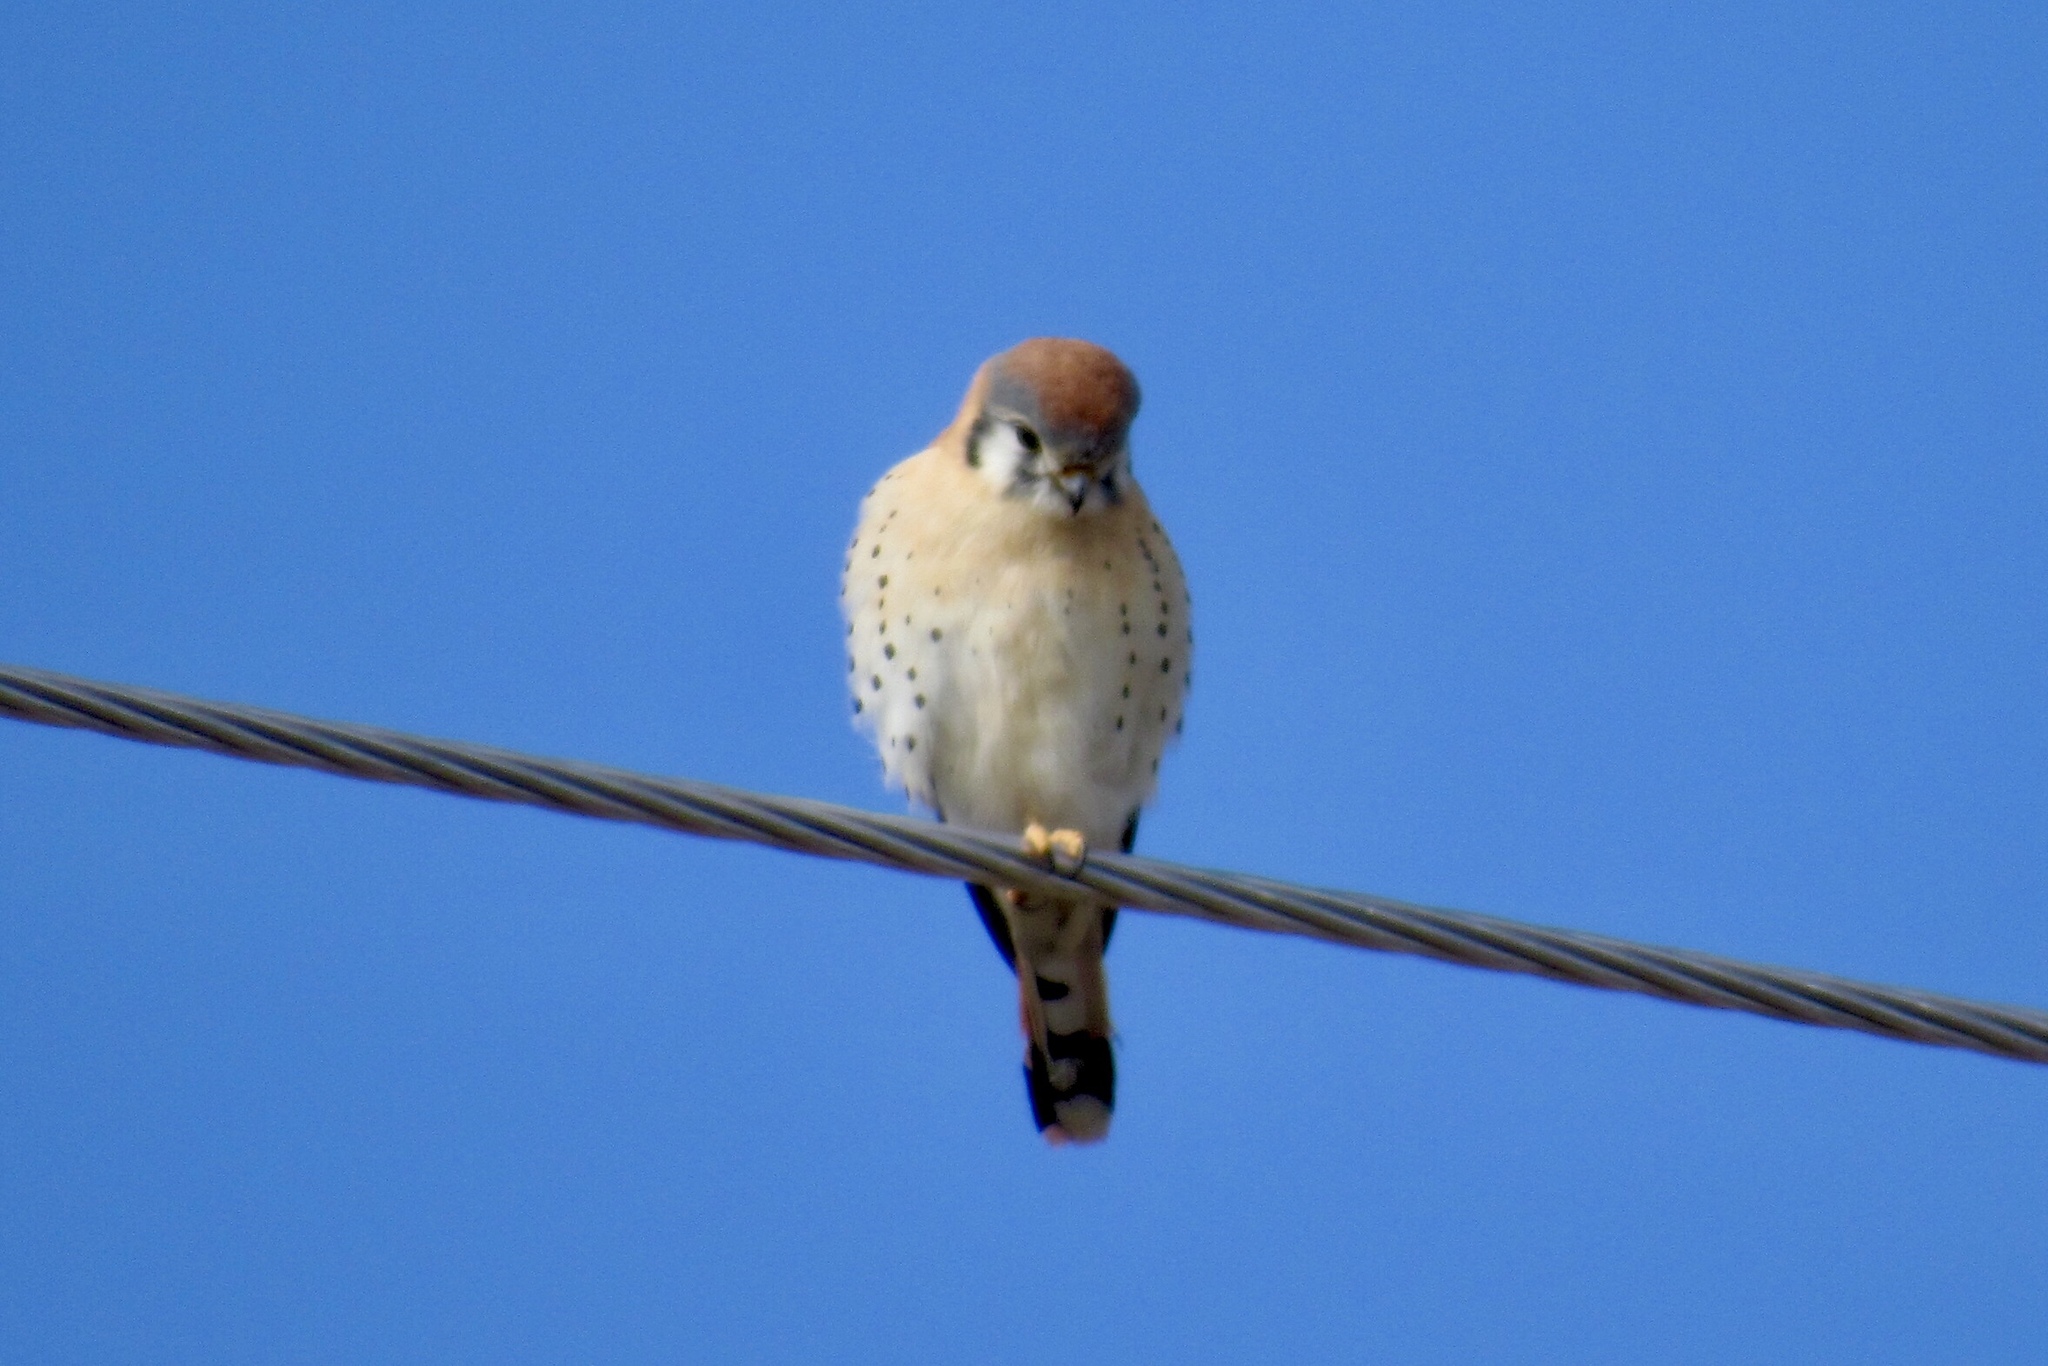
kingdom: Animalia
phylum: Chordata
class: Aves
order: Falconiformes
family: Falconidae
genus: Falco
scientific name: Falco sparverius
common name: American kestrel
